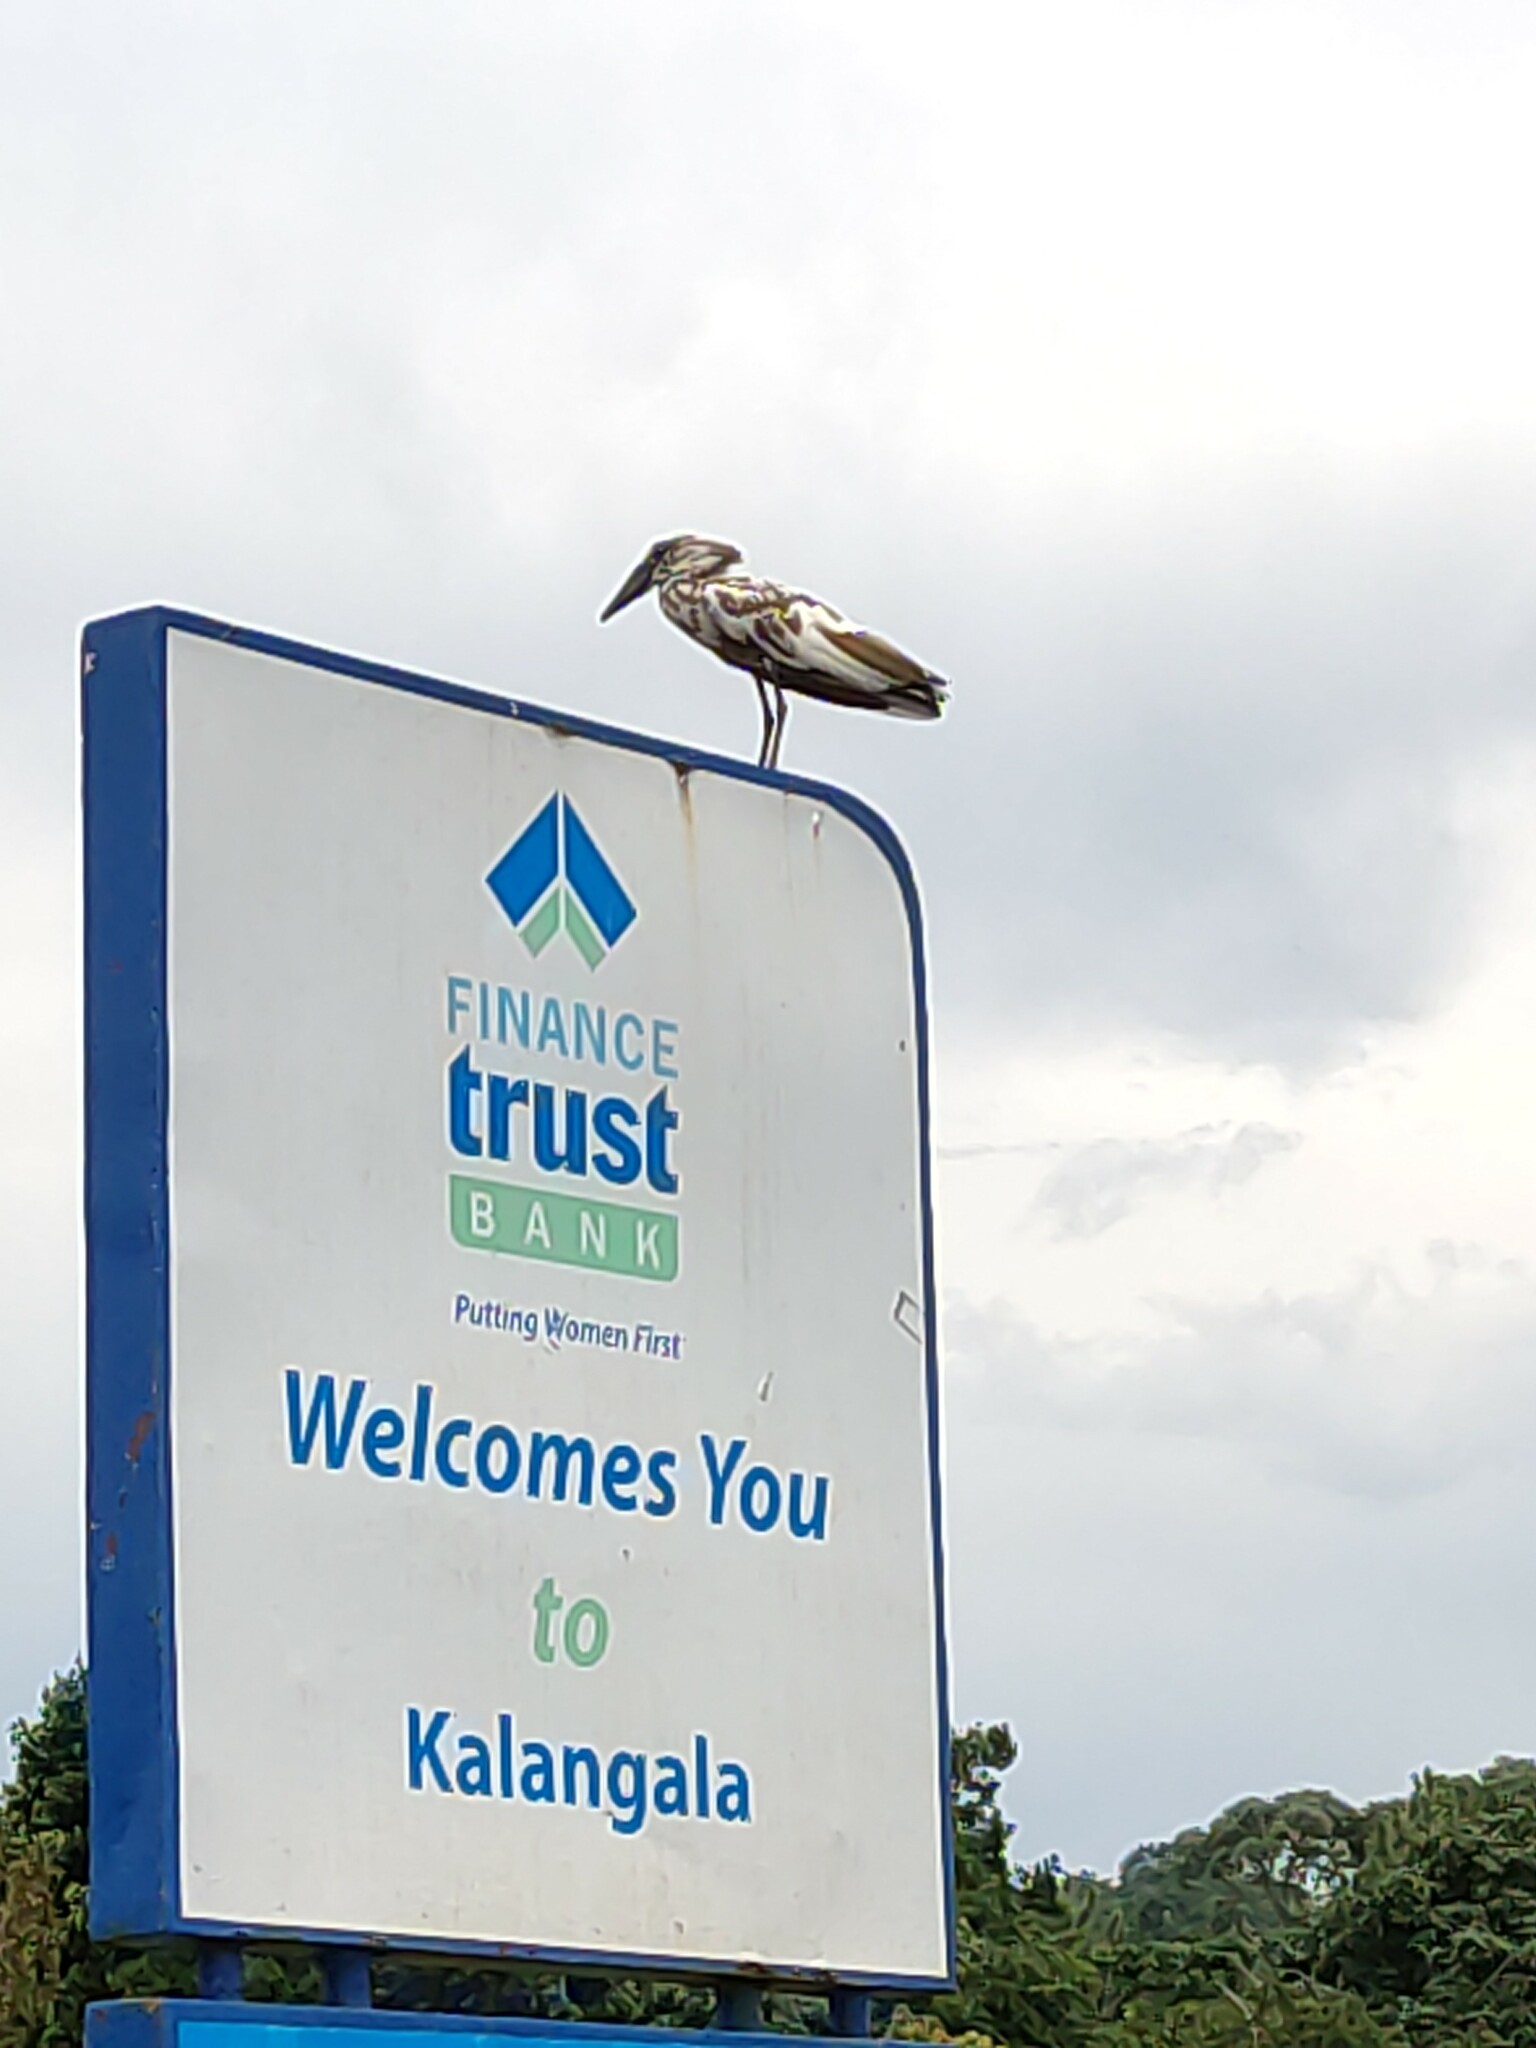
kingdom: Animalia
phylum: Chordata
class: Aves
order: Pelecaniformes
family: Scopidae
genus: Scopus
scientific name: Scopus umbretta
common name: Hamerkop
